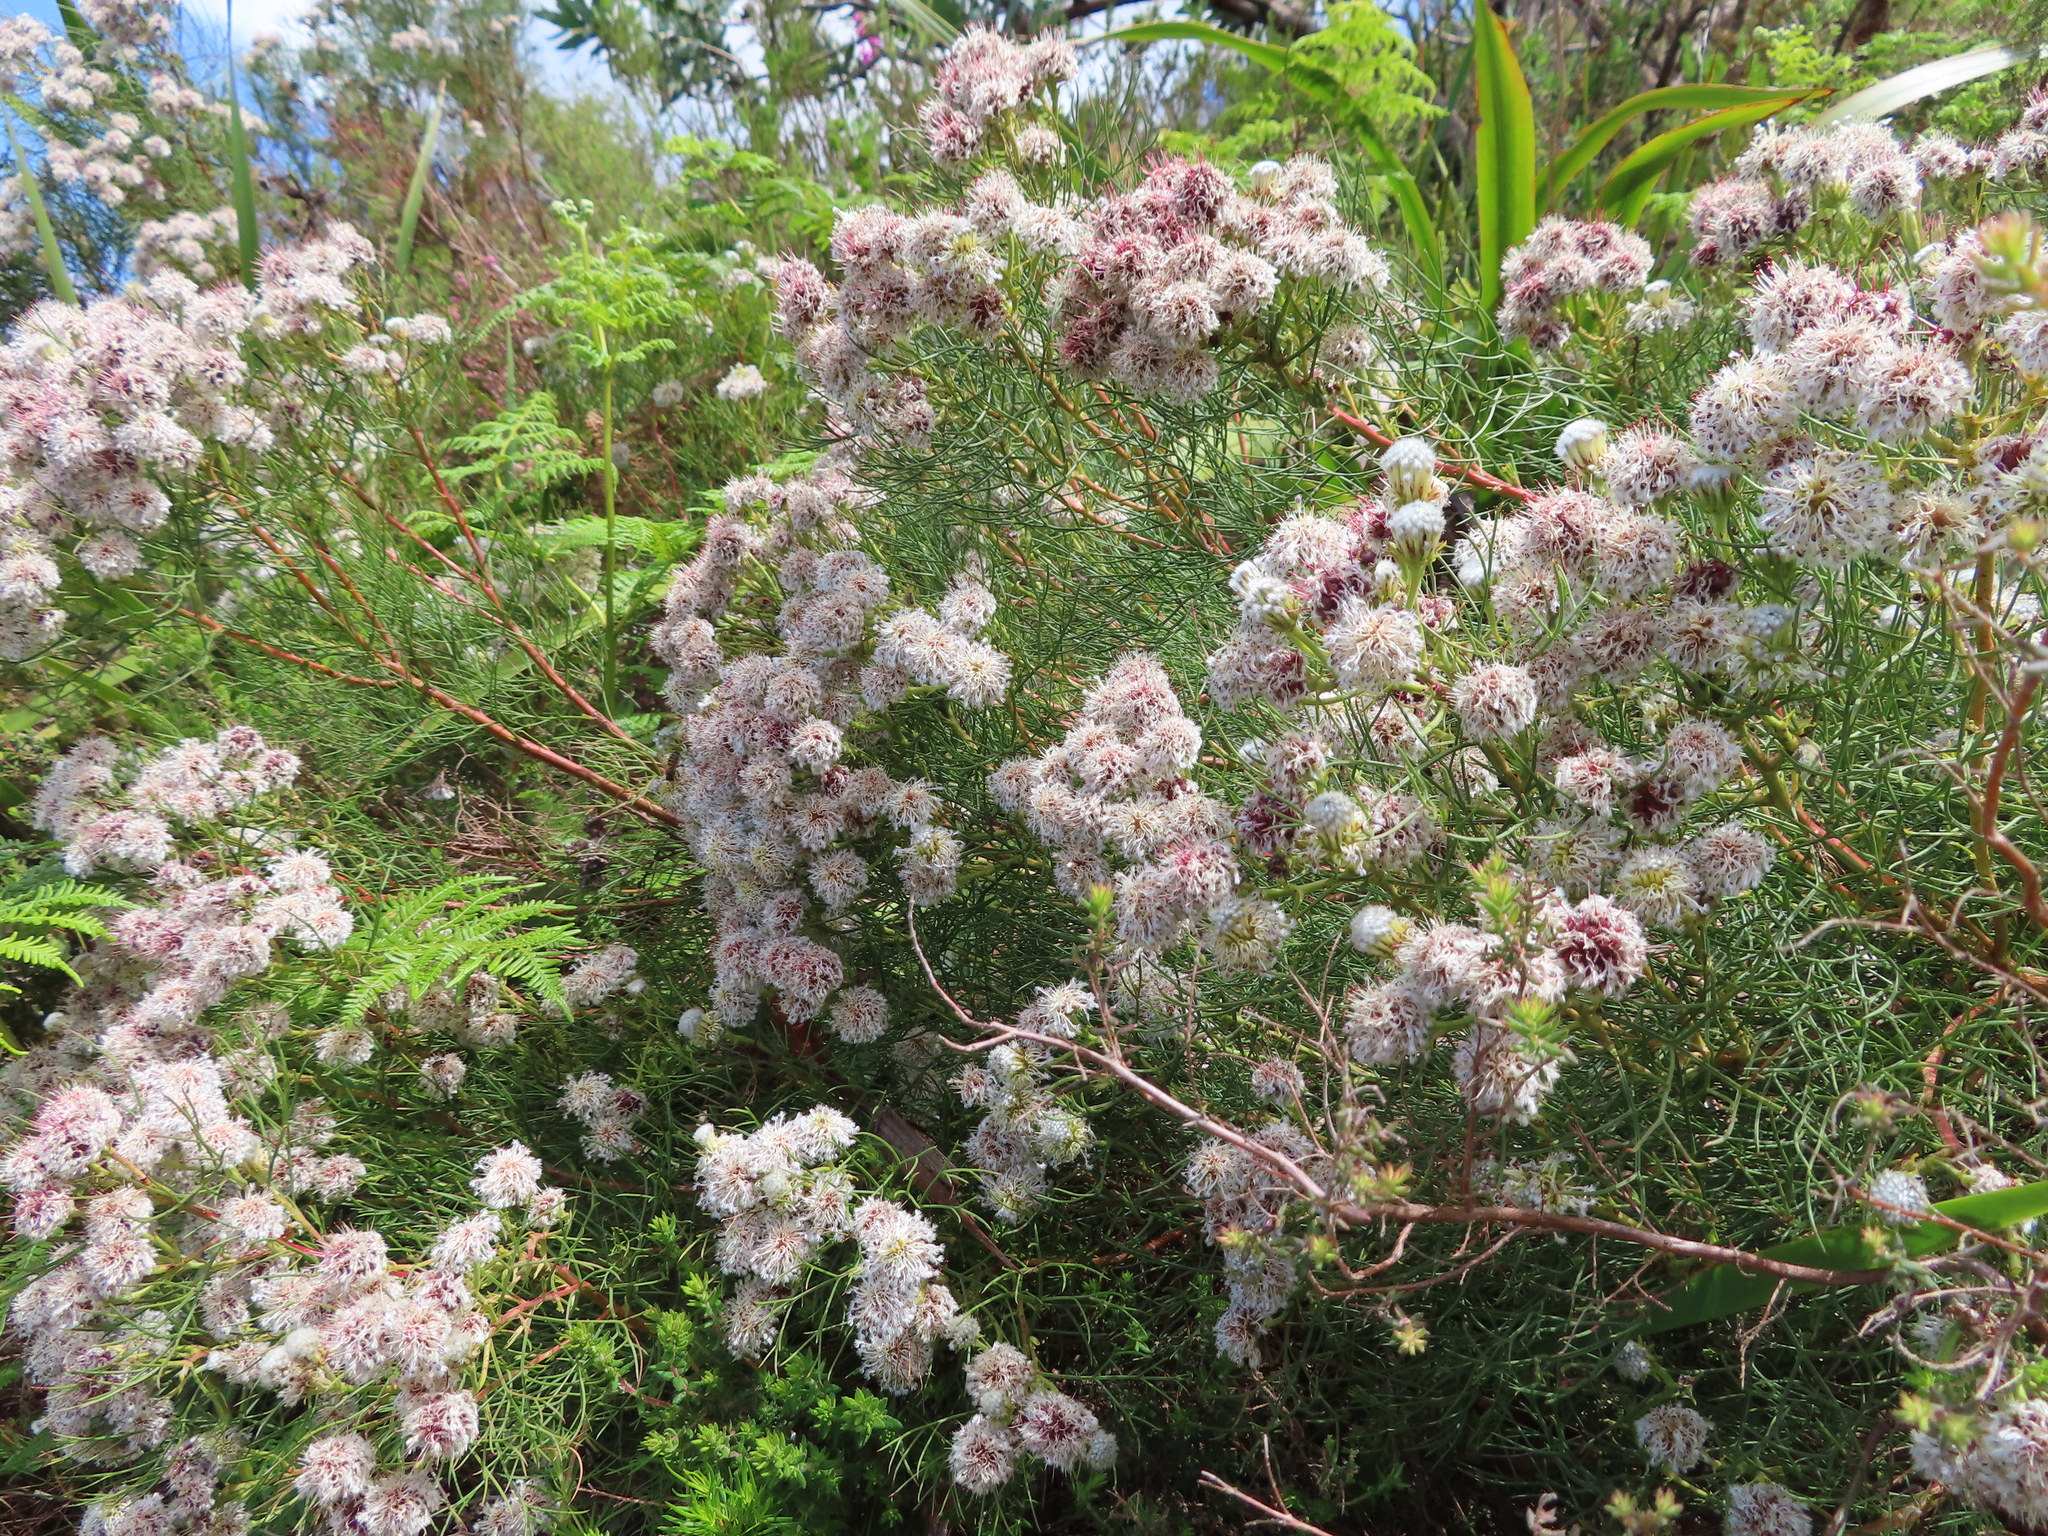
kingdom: Plantae
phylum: Tracheophyta
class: Magnoliopsida
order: Proteales
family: Proteaceae
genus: Serruria
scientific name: Serruria kraussii
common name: Snowball spiderhead
